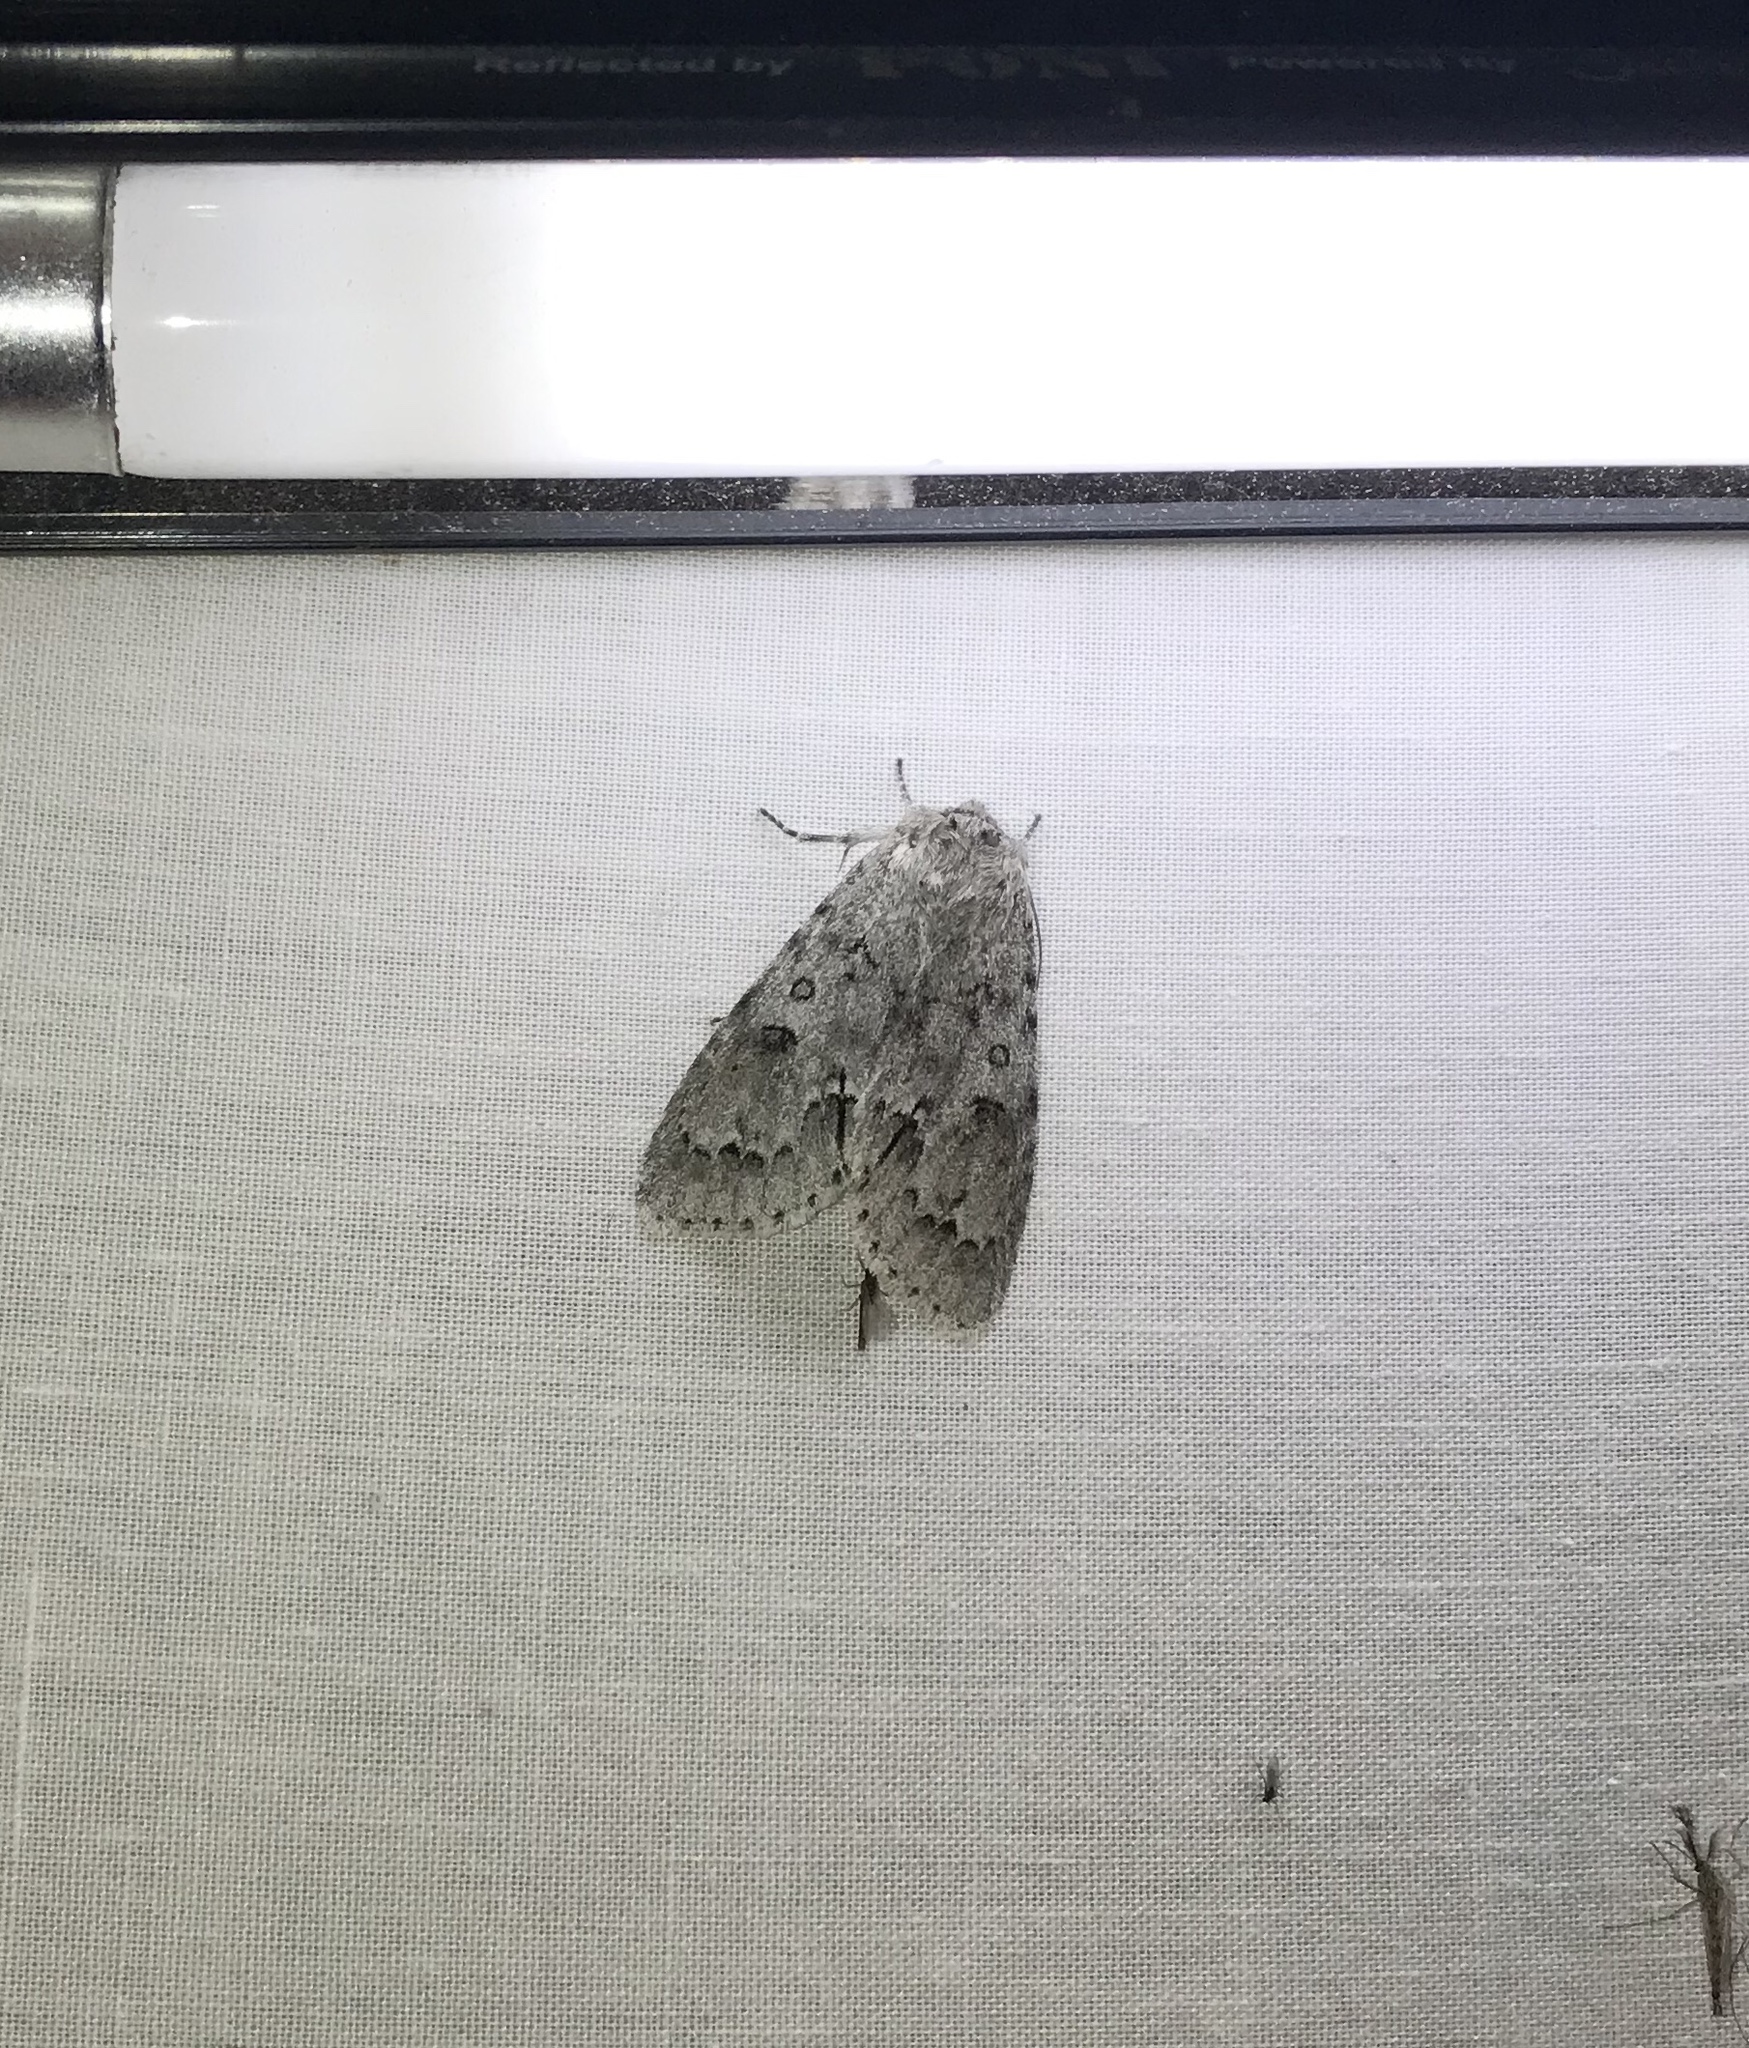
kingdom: Animalia
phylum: Arthropoda
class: Insecta
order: Lepidoptera
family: Noctuidae
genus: Acronicta
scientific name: Acronicta insita
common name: Large gray dagger
